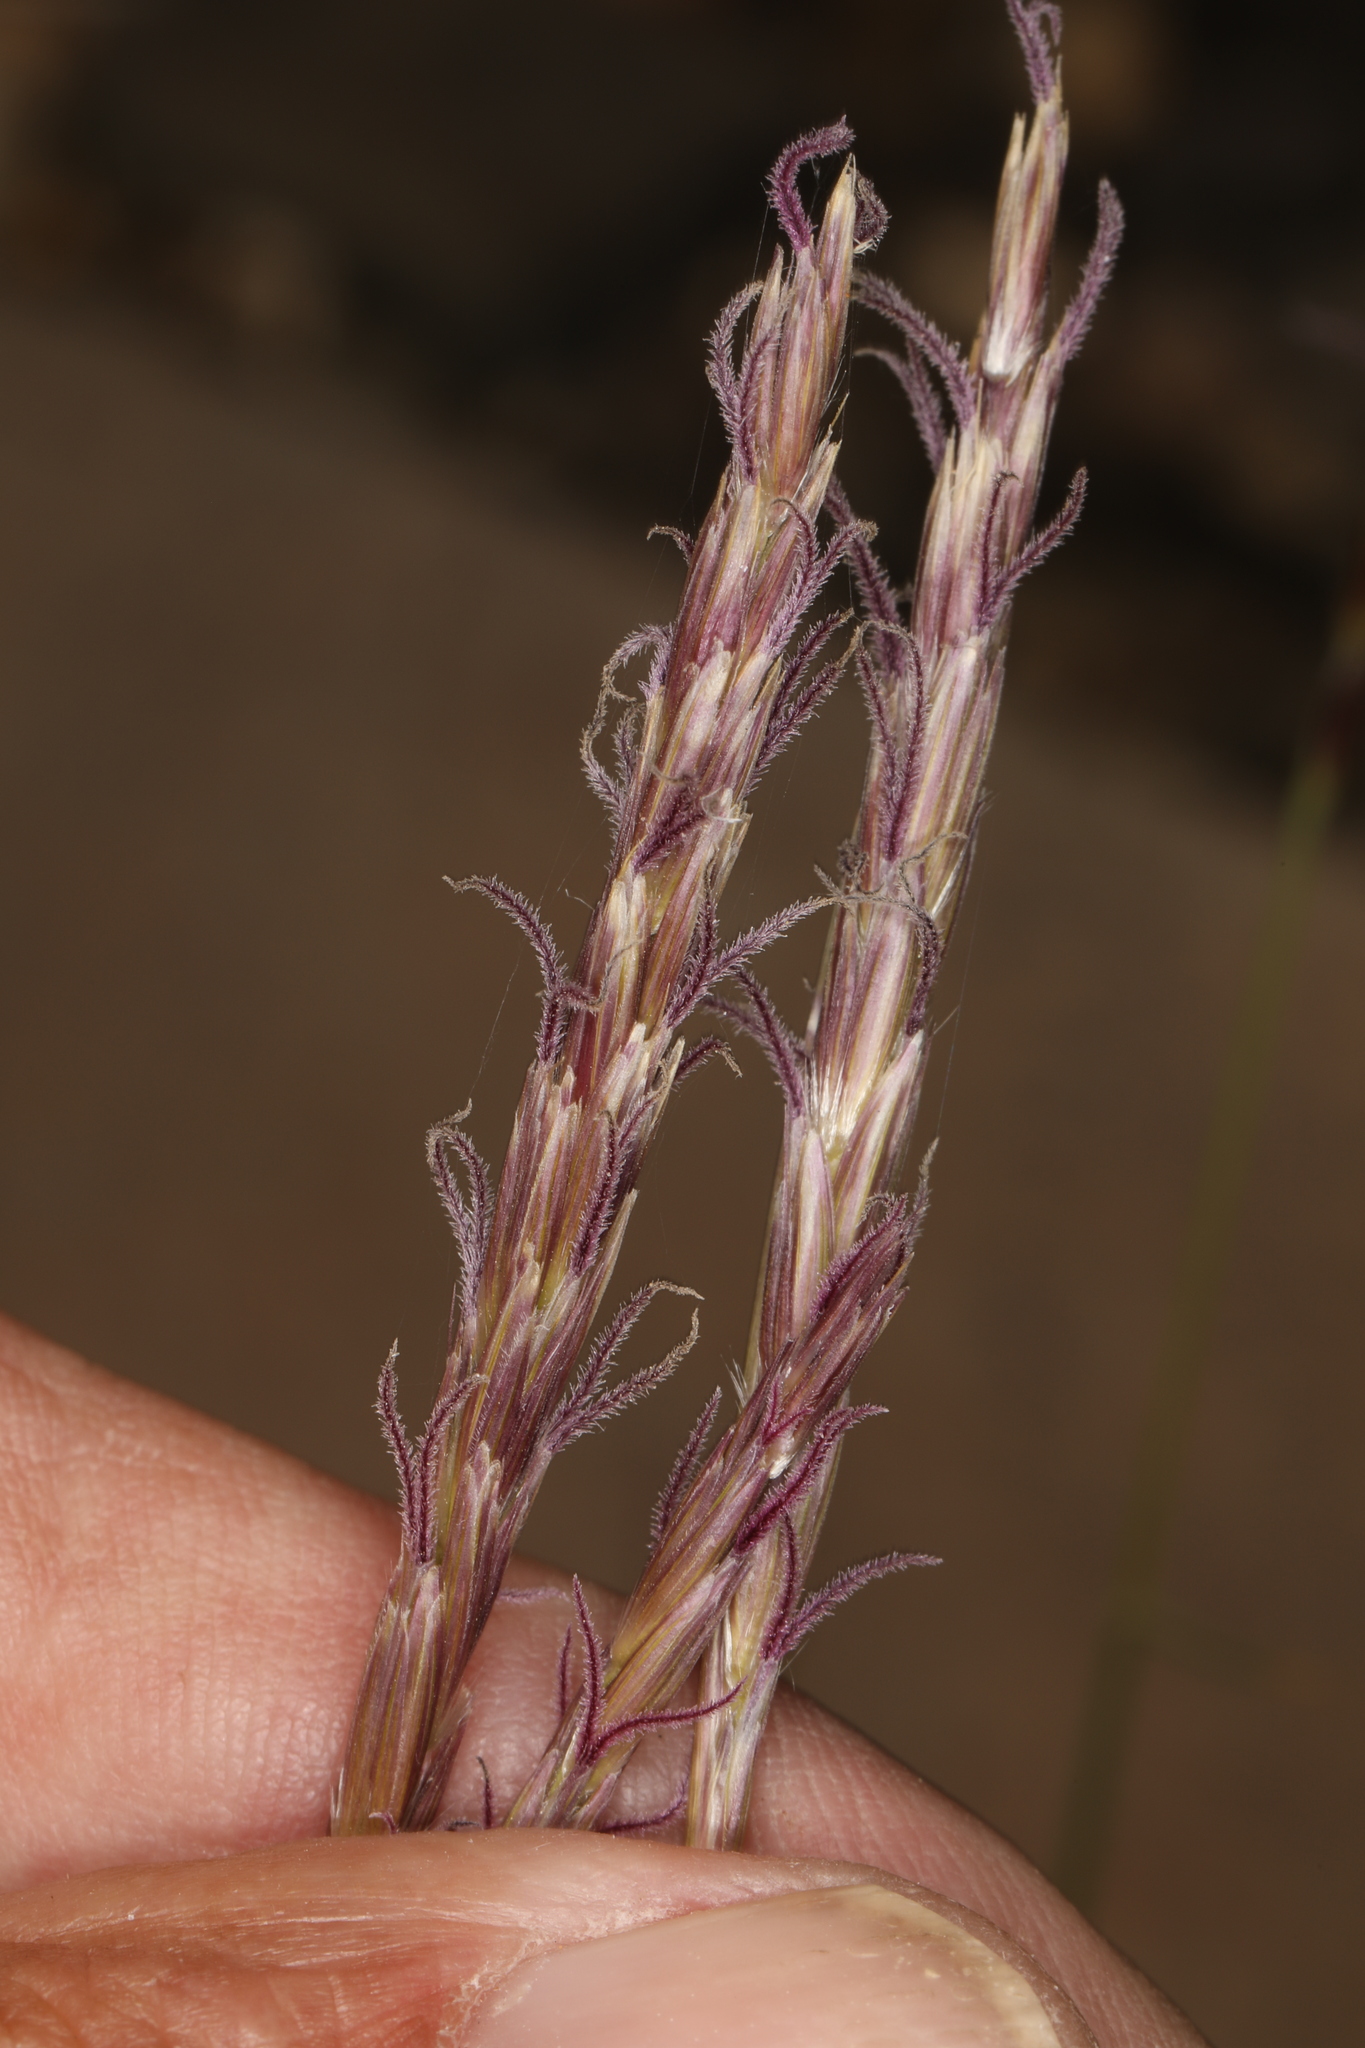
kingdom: Plantae
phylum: Tracheophyta
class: Liliopsida
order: Poales
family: Poaceae
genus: Hilaria
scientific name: Hilaria jamesii
